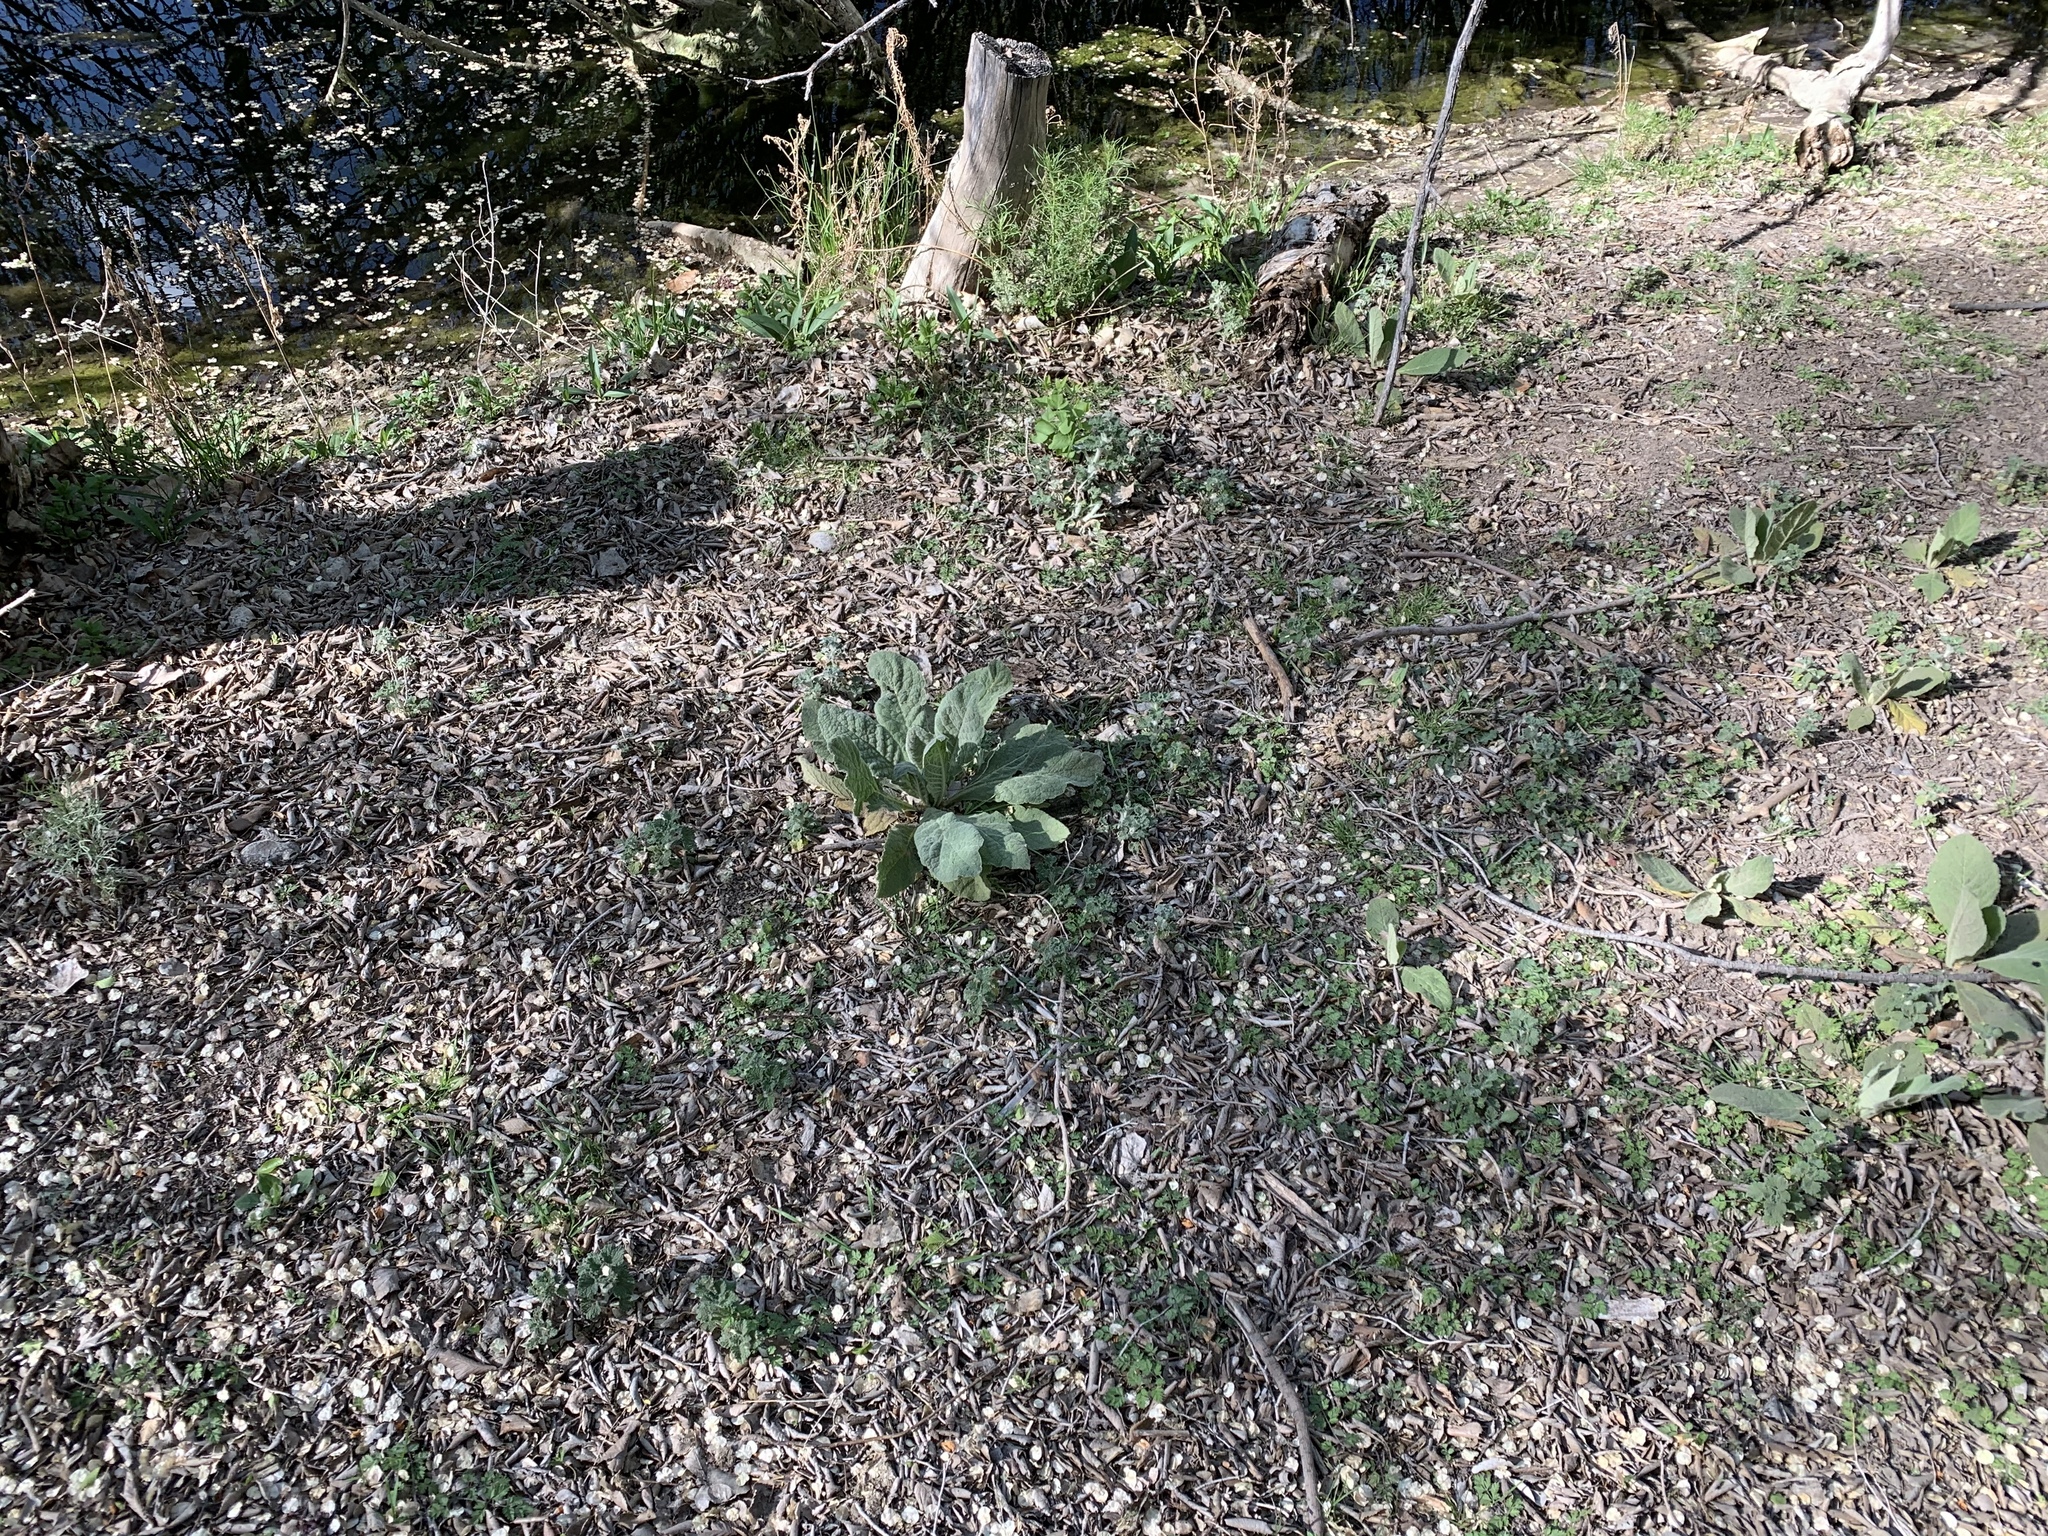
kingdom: Plantae
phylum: Tracheophyta
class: Magnoliopsida
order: Lamiales
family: Scrophulariaceae
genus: Verbascum
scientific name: Verbascum thapsus
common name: Common mullein
